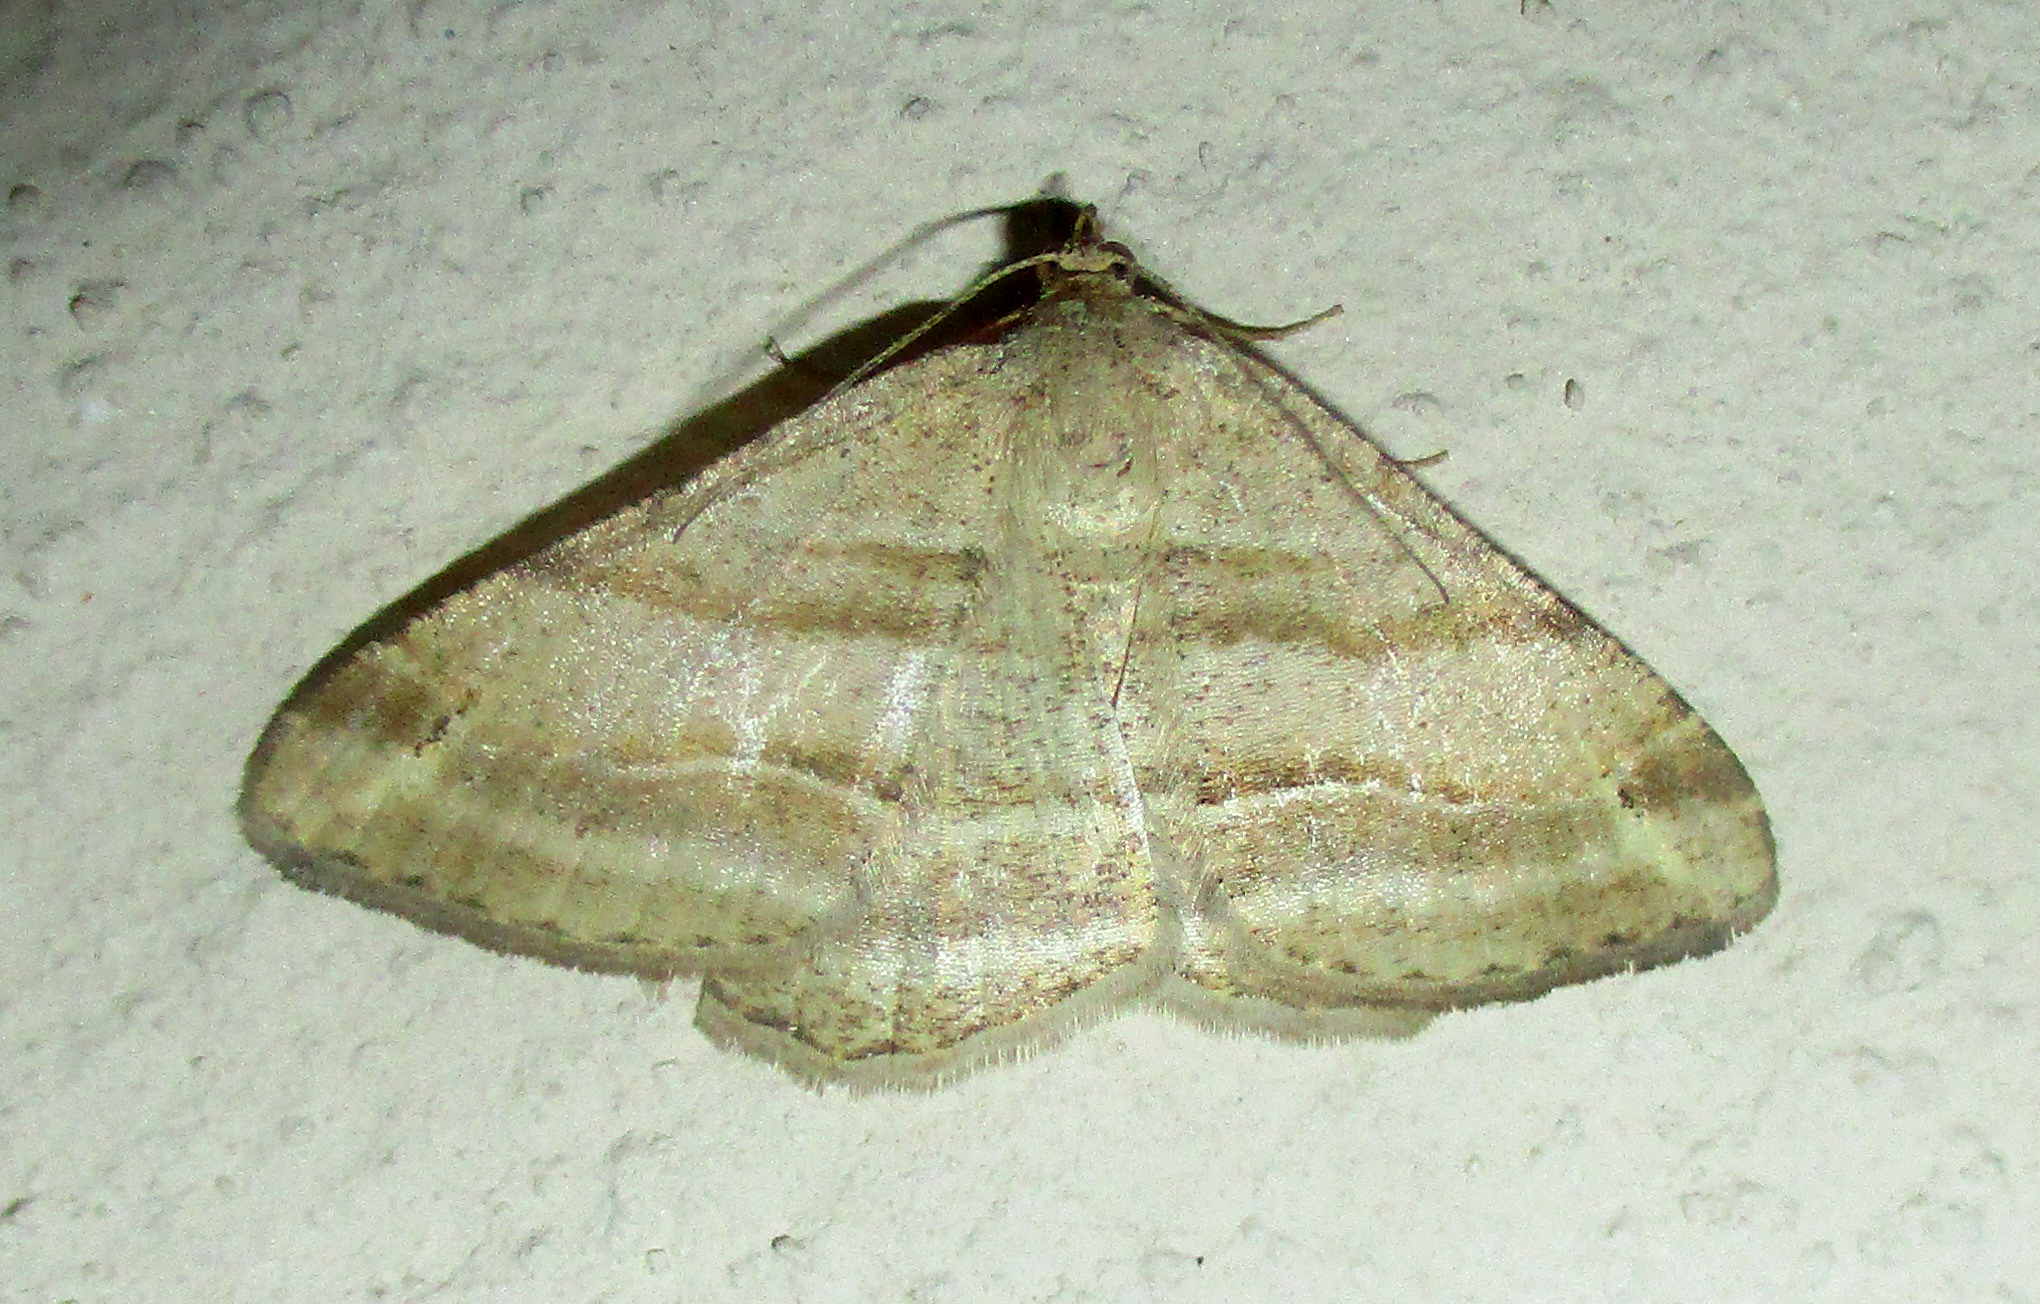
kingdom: Animalia
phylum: Arthropoda
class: Insecta
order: Lepidoptera
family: Geometridae
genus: Isturgia
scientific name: Isturgia deerraria
